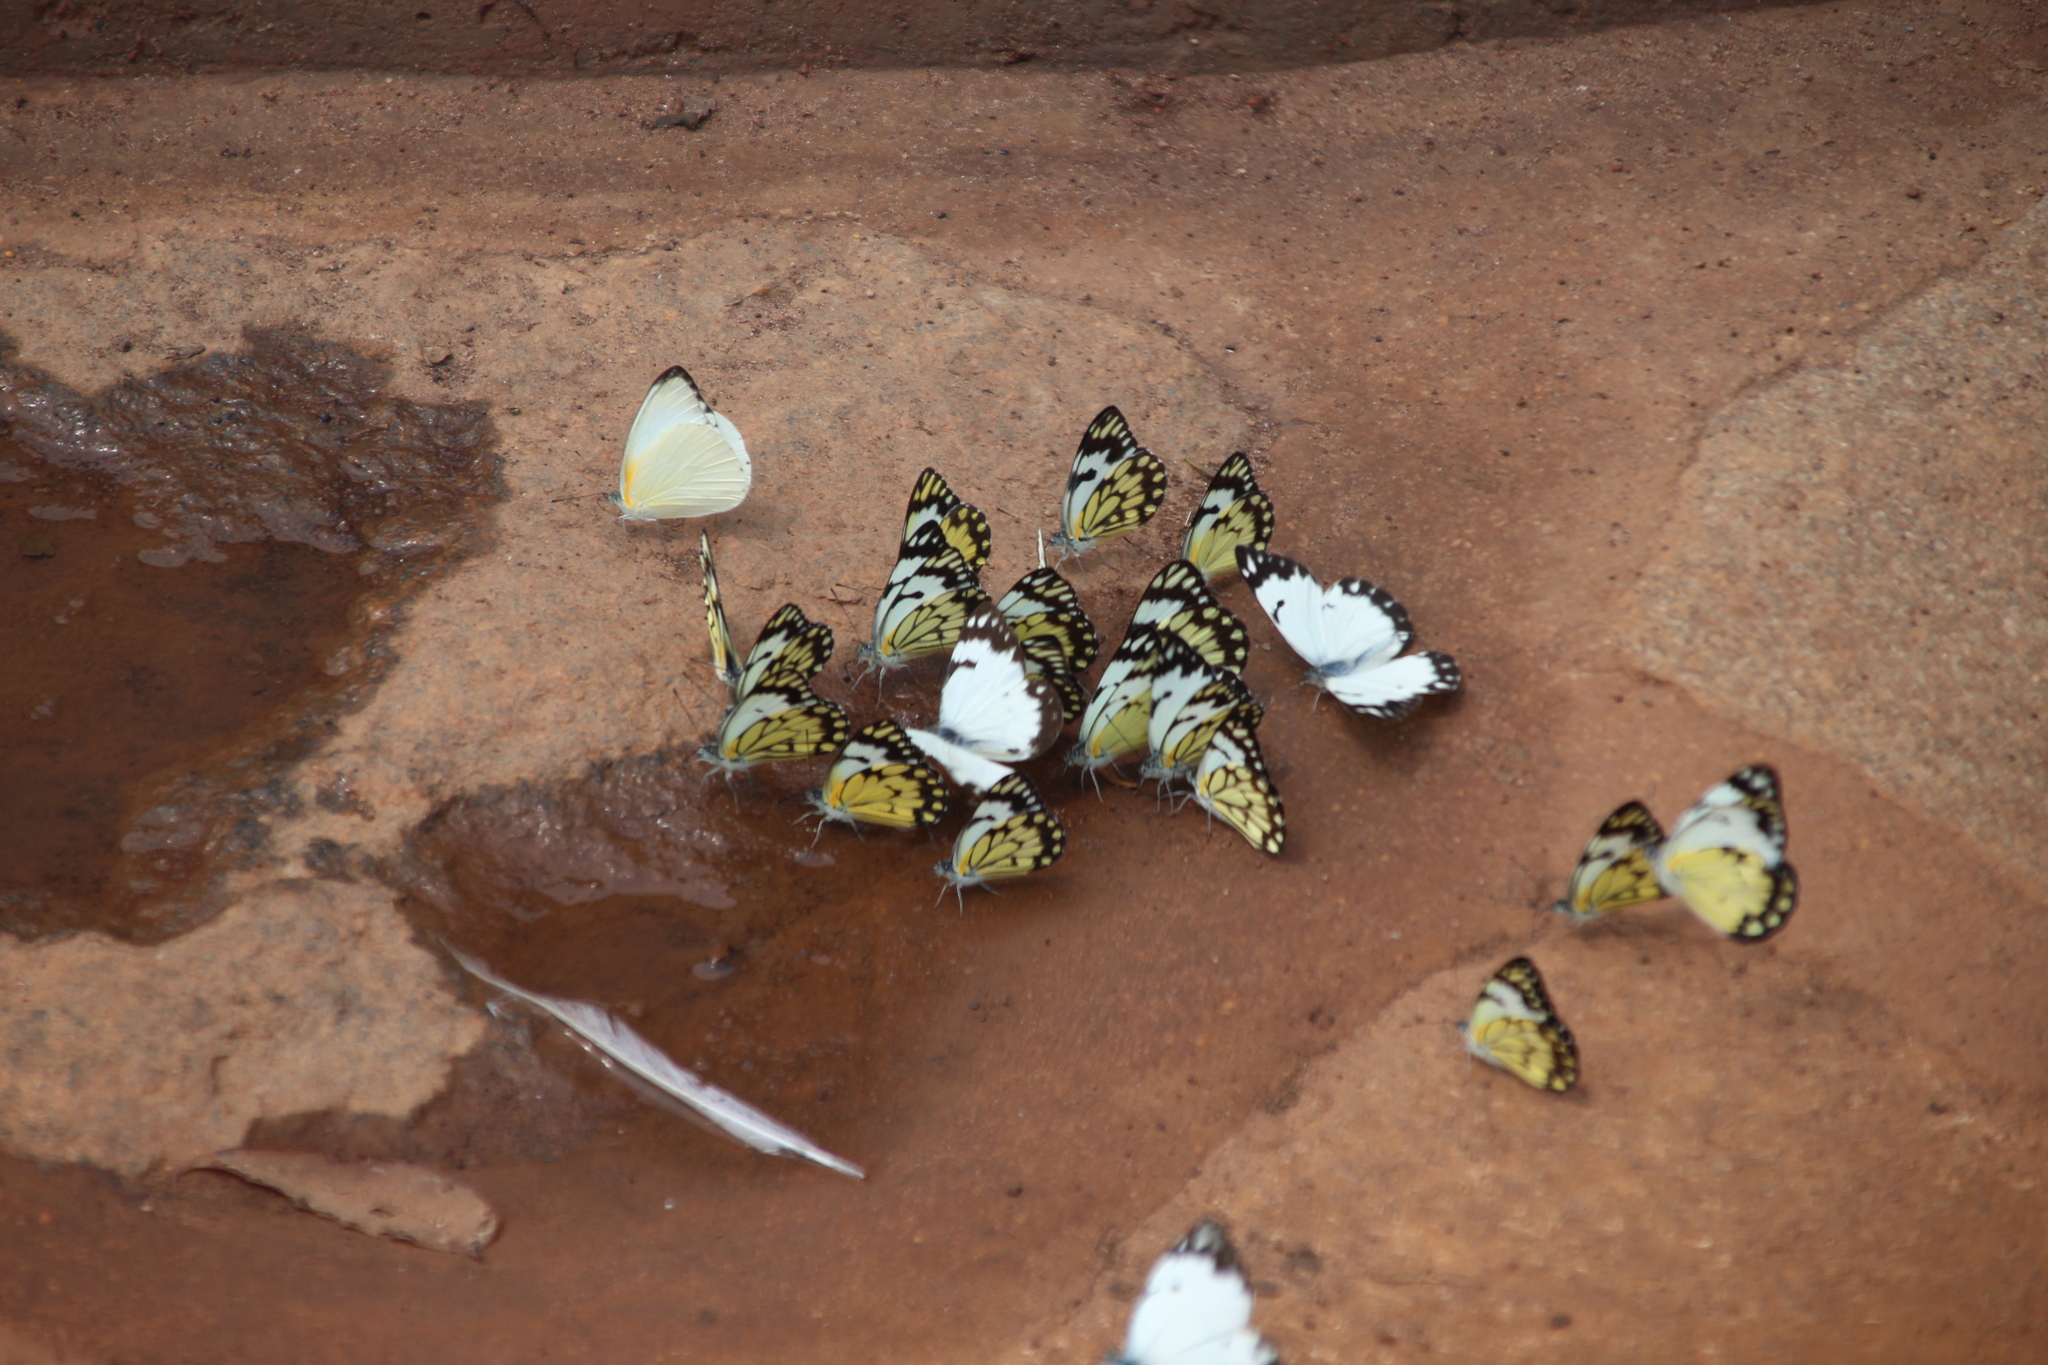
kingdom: Animalia
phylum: Arthropoda
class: Insecta
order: Lepidoptera
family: Pieridae
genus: Belenois
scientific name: Belenois creona
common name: African caper white
